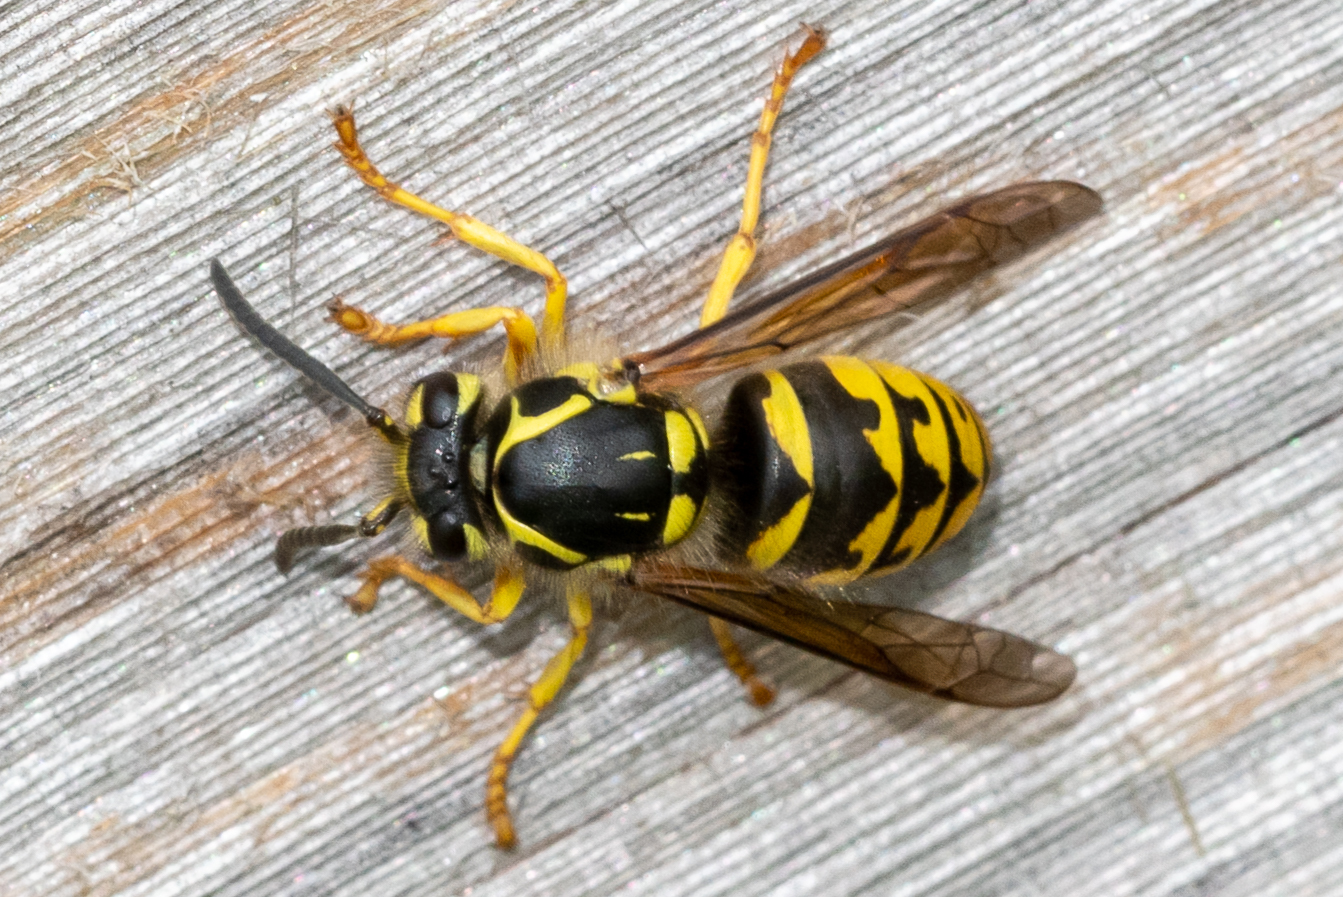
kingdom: Animalia
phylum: Arthropoda
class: Insecta
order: Hymenoptera
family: Vespidae
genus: Dolichovespula
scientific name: Dolichovespula arenaria
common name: Aerial yellowjacket
